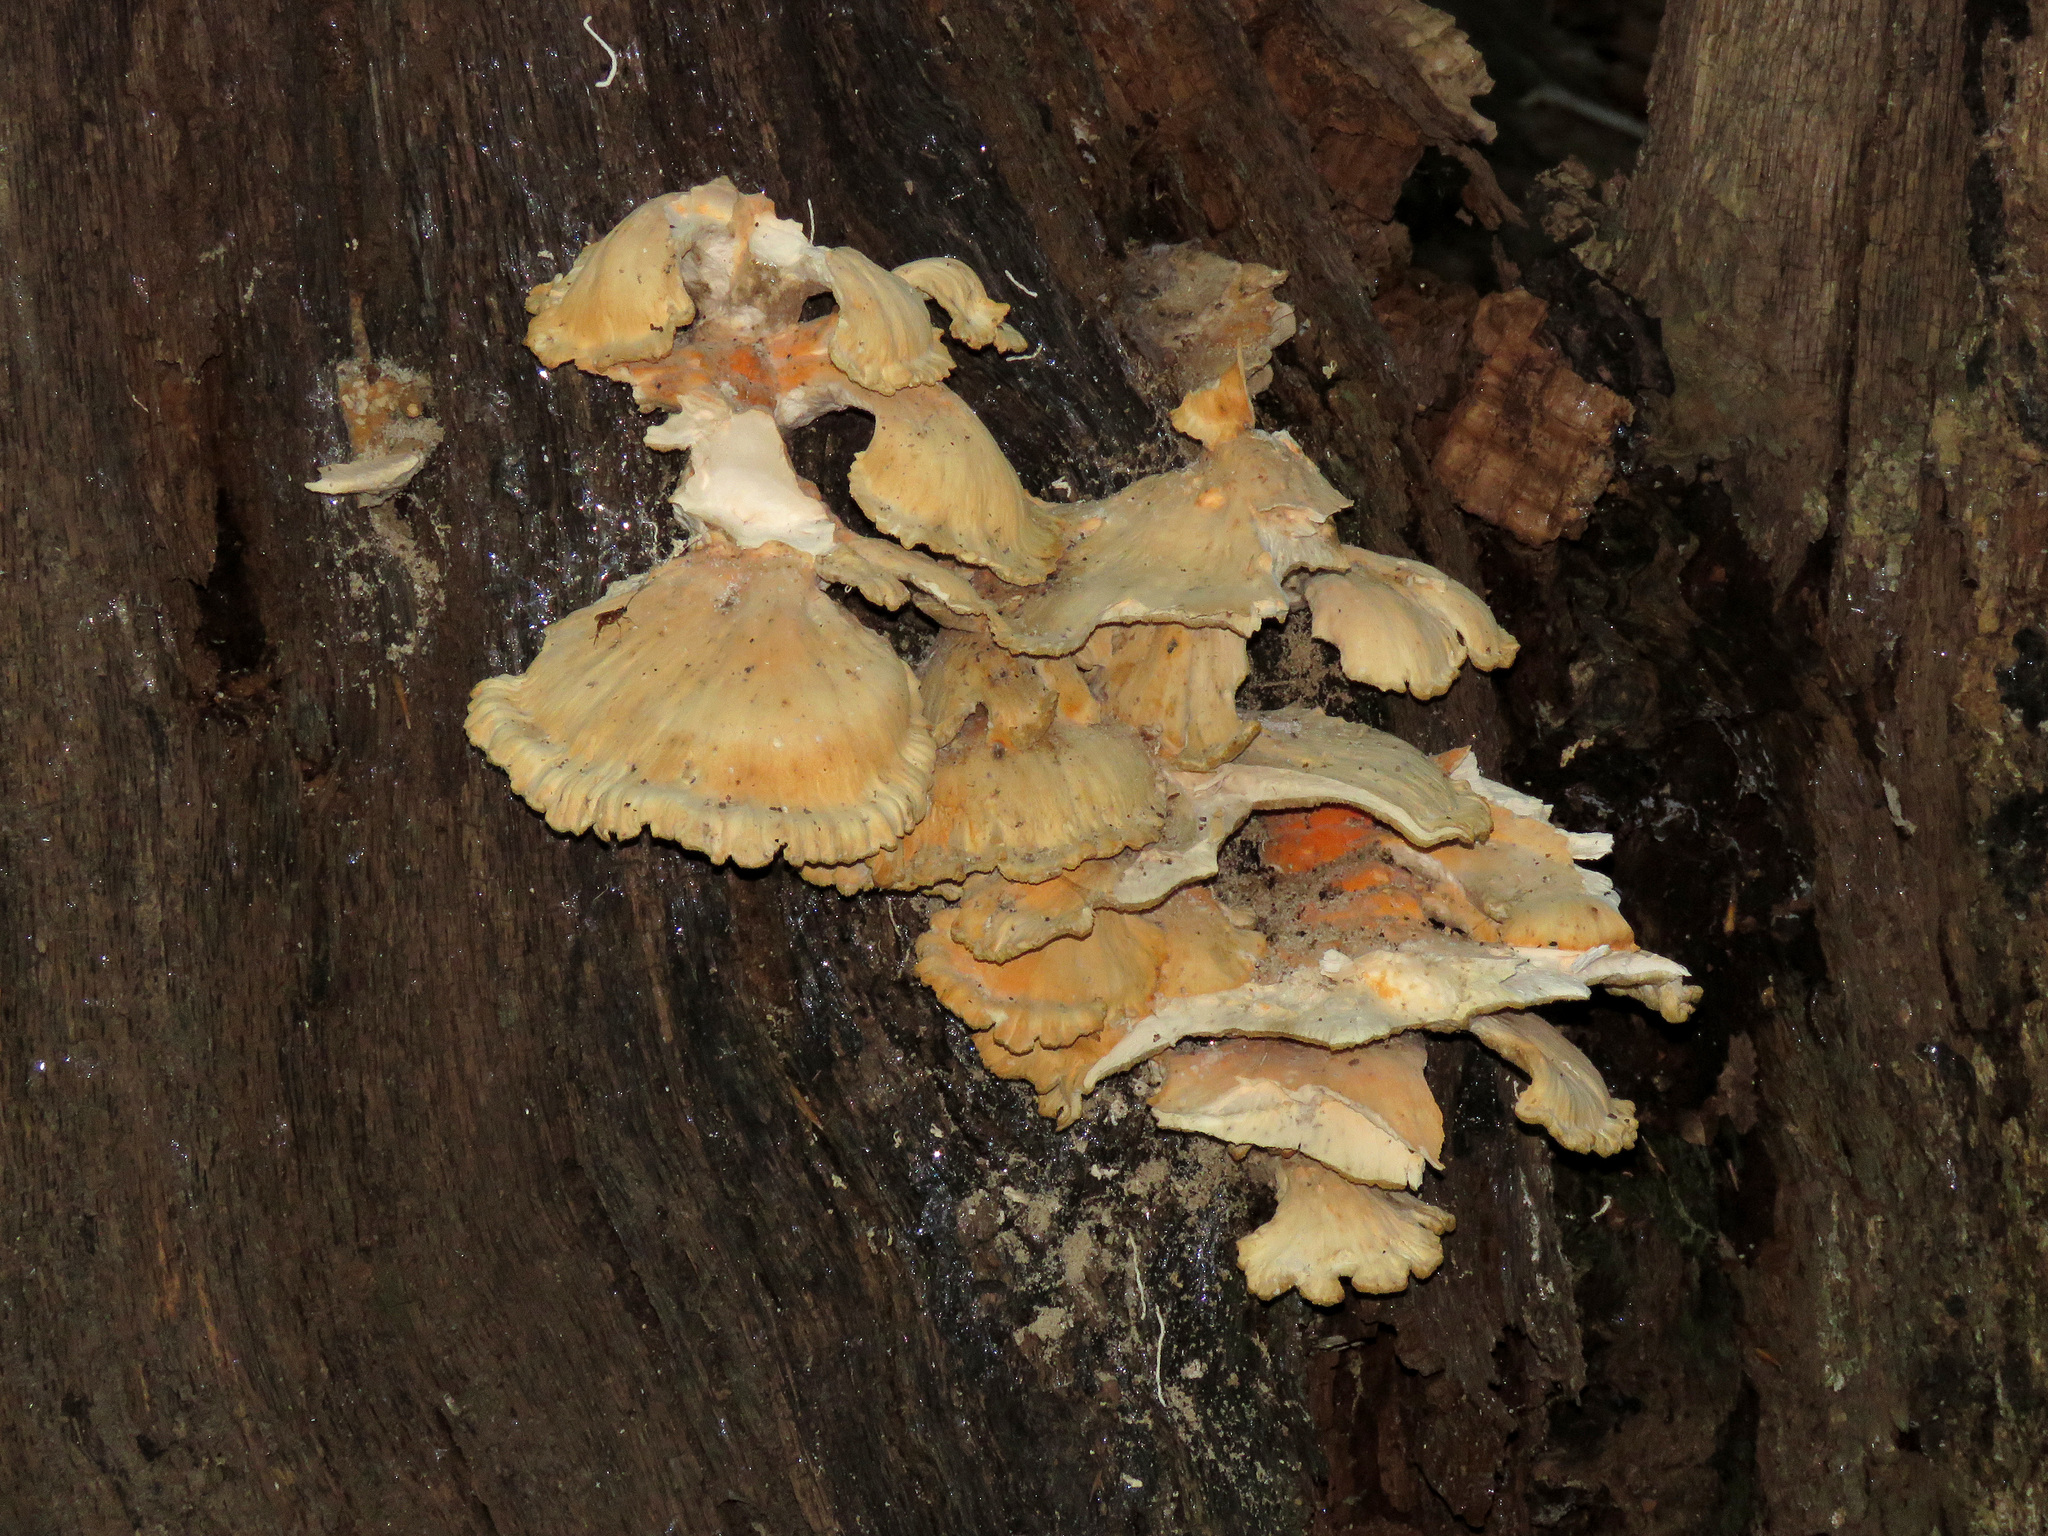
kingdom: Fungi
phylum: Basidiomycota
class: Agaricomycetes
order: Polyporales
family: Laetiporaceae
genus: Laetiporus
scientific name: Laetiporus sulphureus
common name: Chicken of the woods
